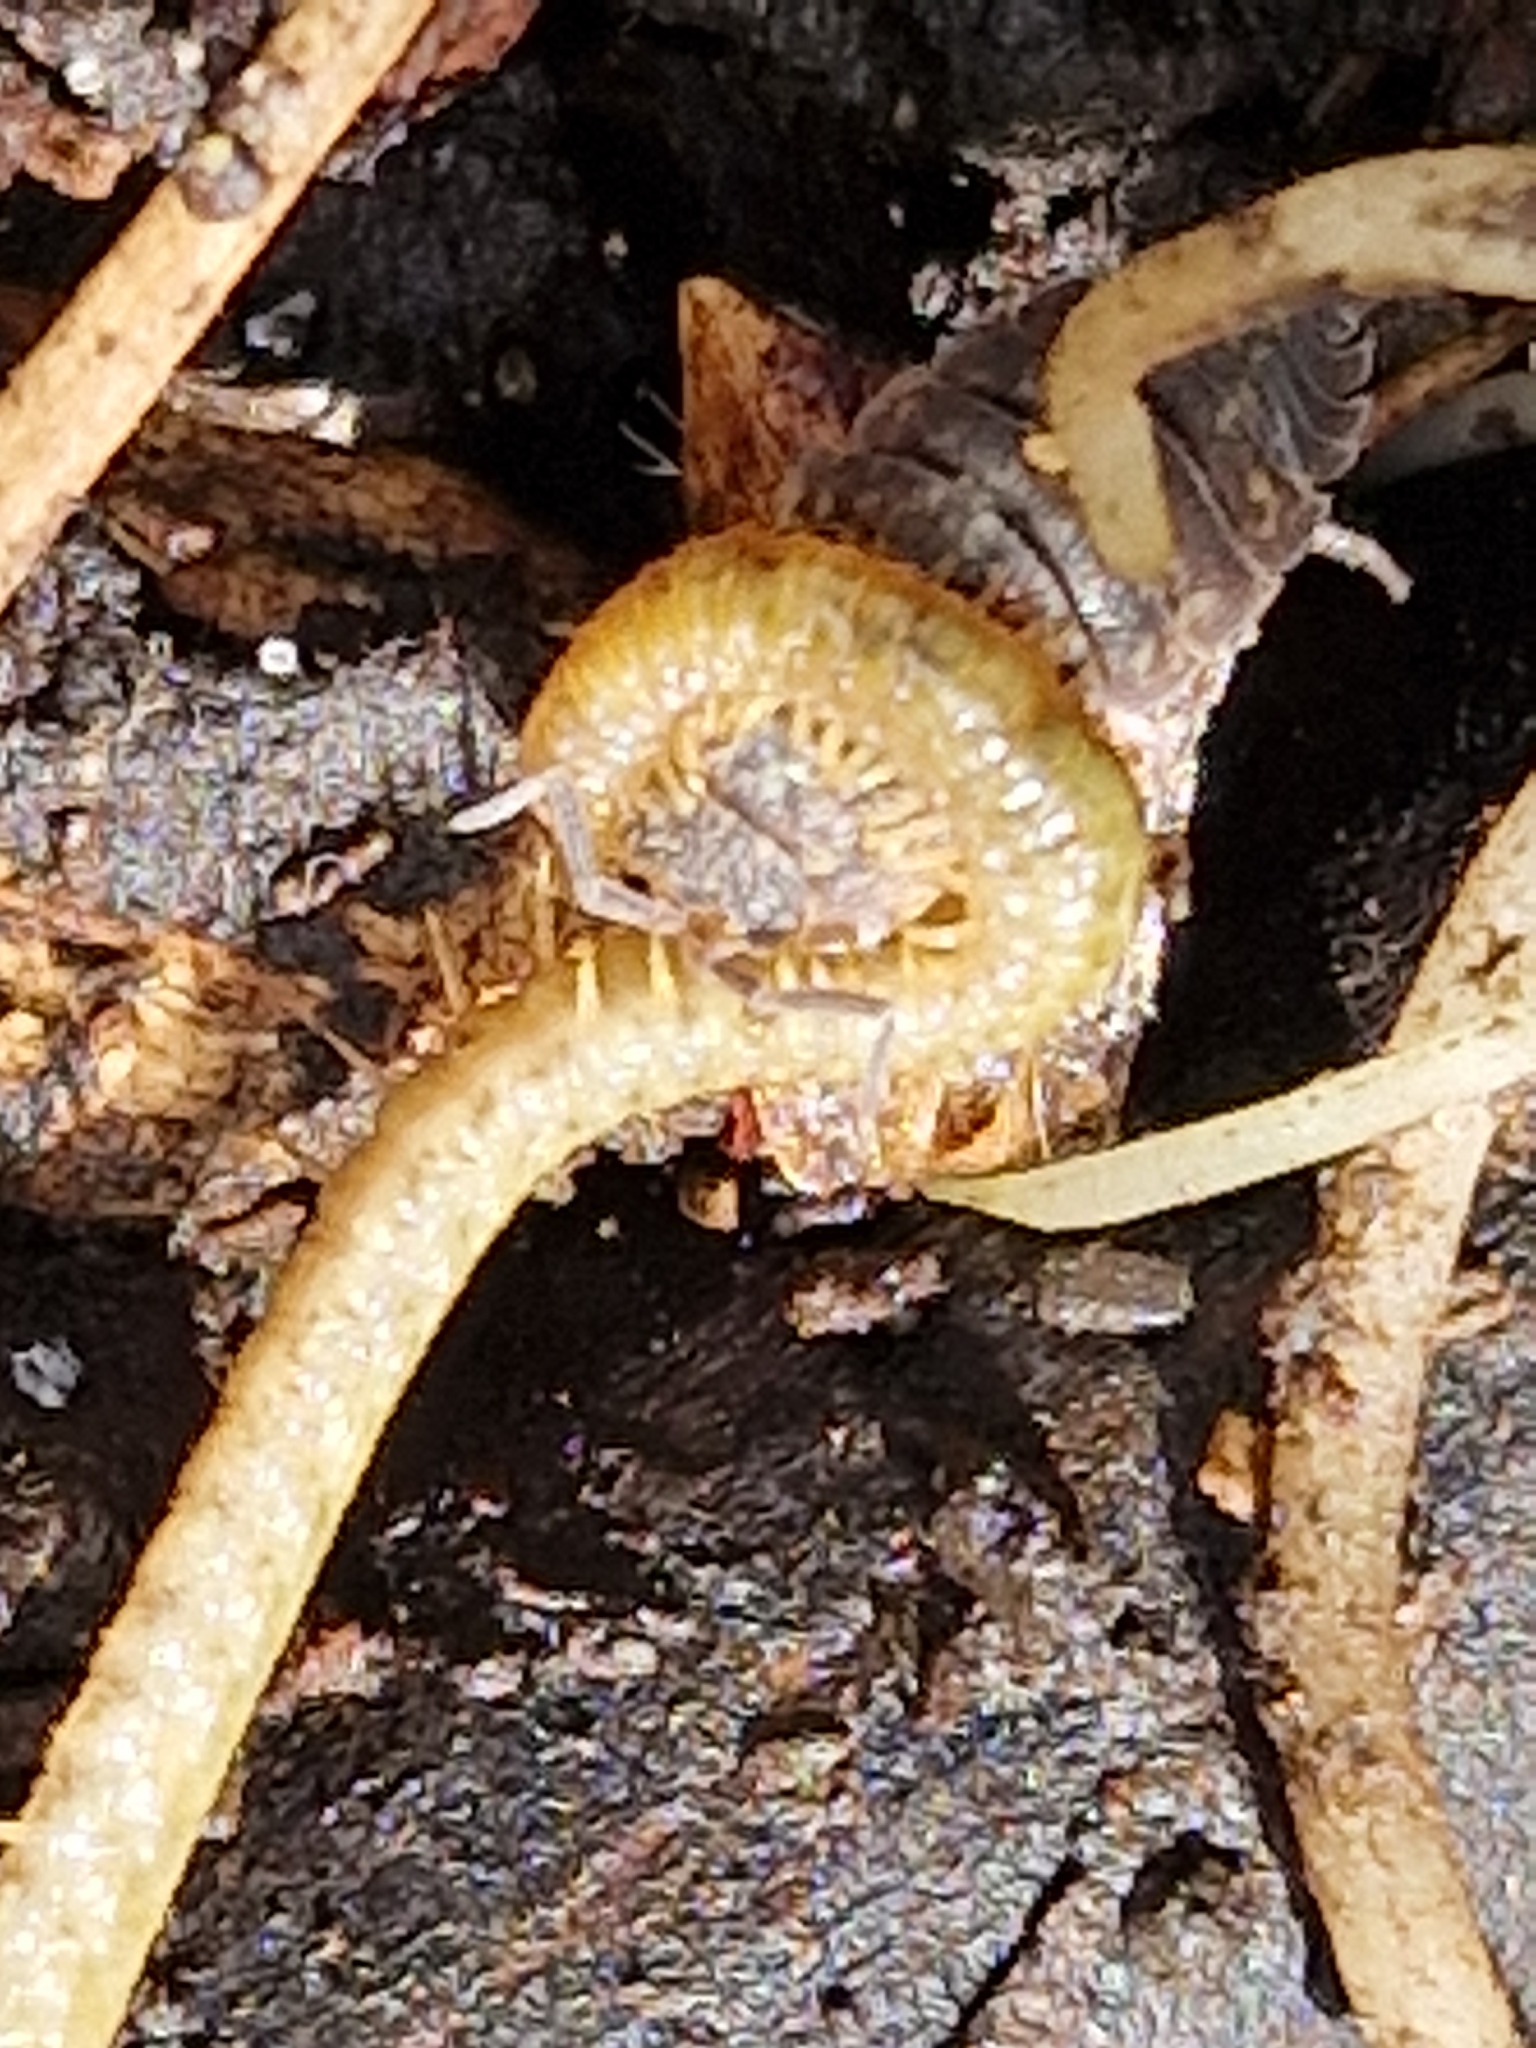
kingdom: Animalia
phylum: Arthropoda
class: Chilopoda
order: Geophilomorpha
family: Dignathodontidae
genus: Henia
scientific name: Henia vesuviana
